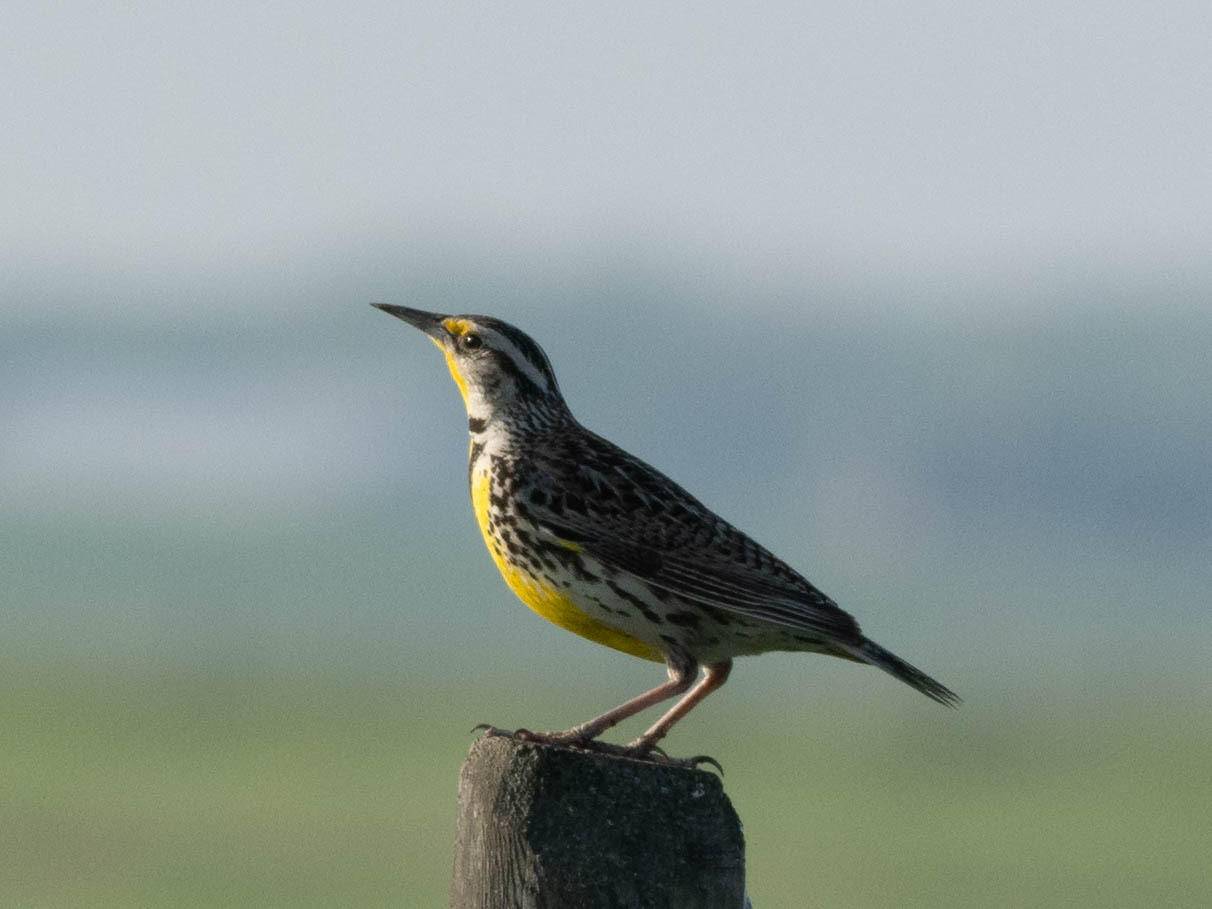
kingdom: Animalia
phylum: Chordata
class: Aves
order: Passeriformes
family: Icteridae
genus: Sturnella
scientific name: Sturnella neglecta
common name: Western meadowlark
